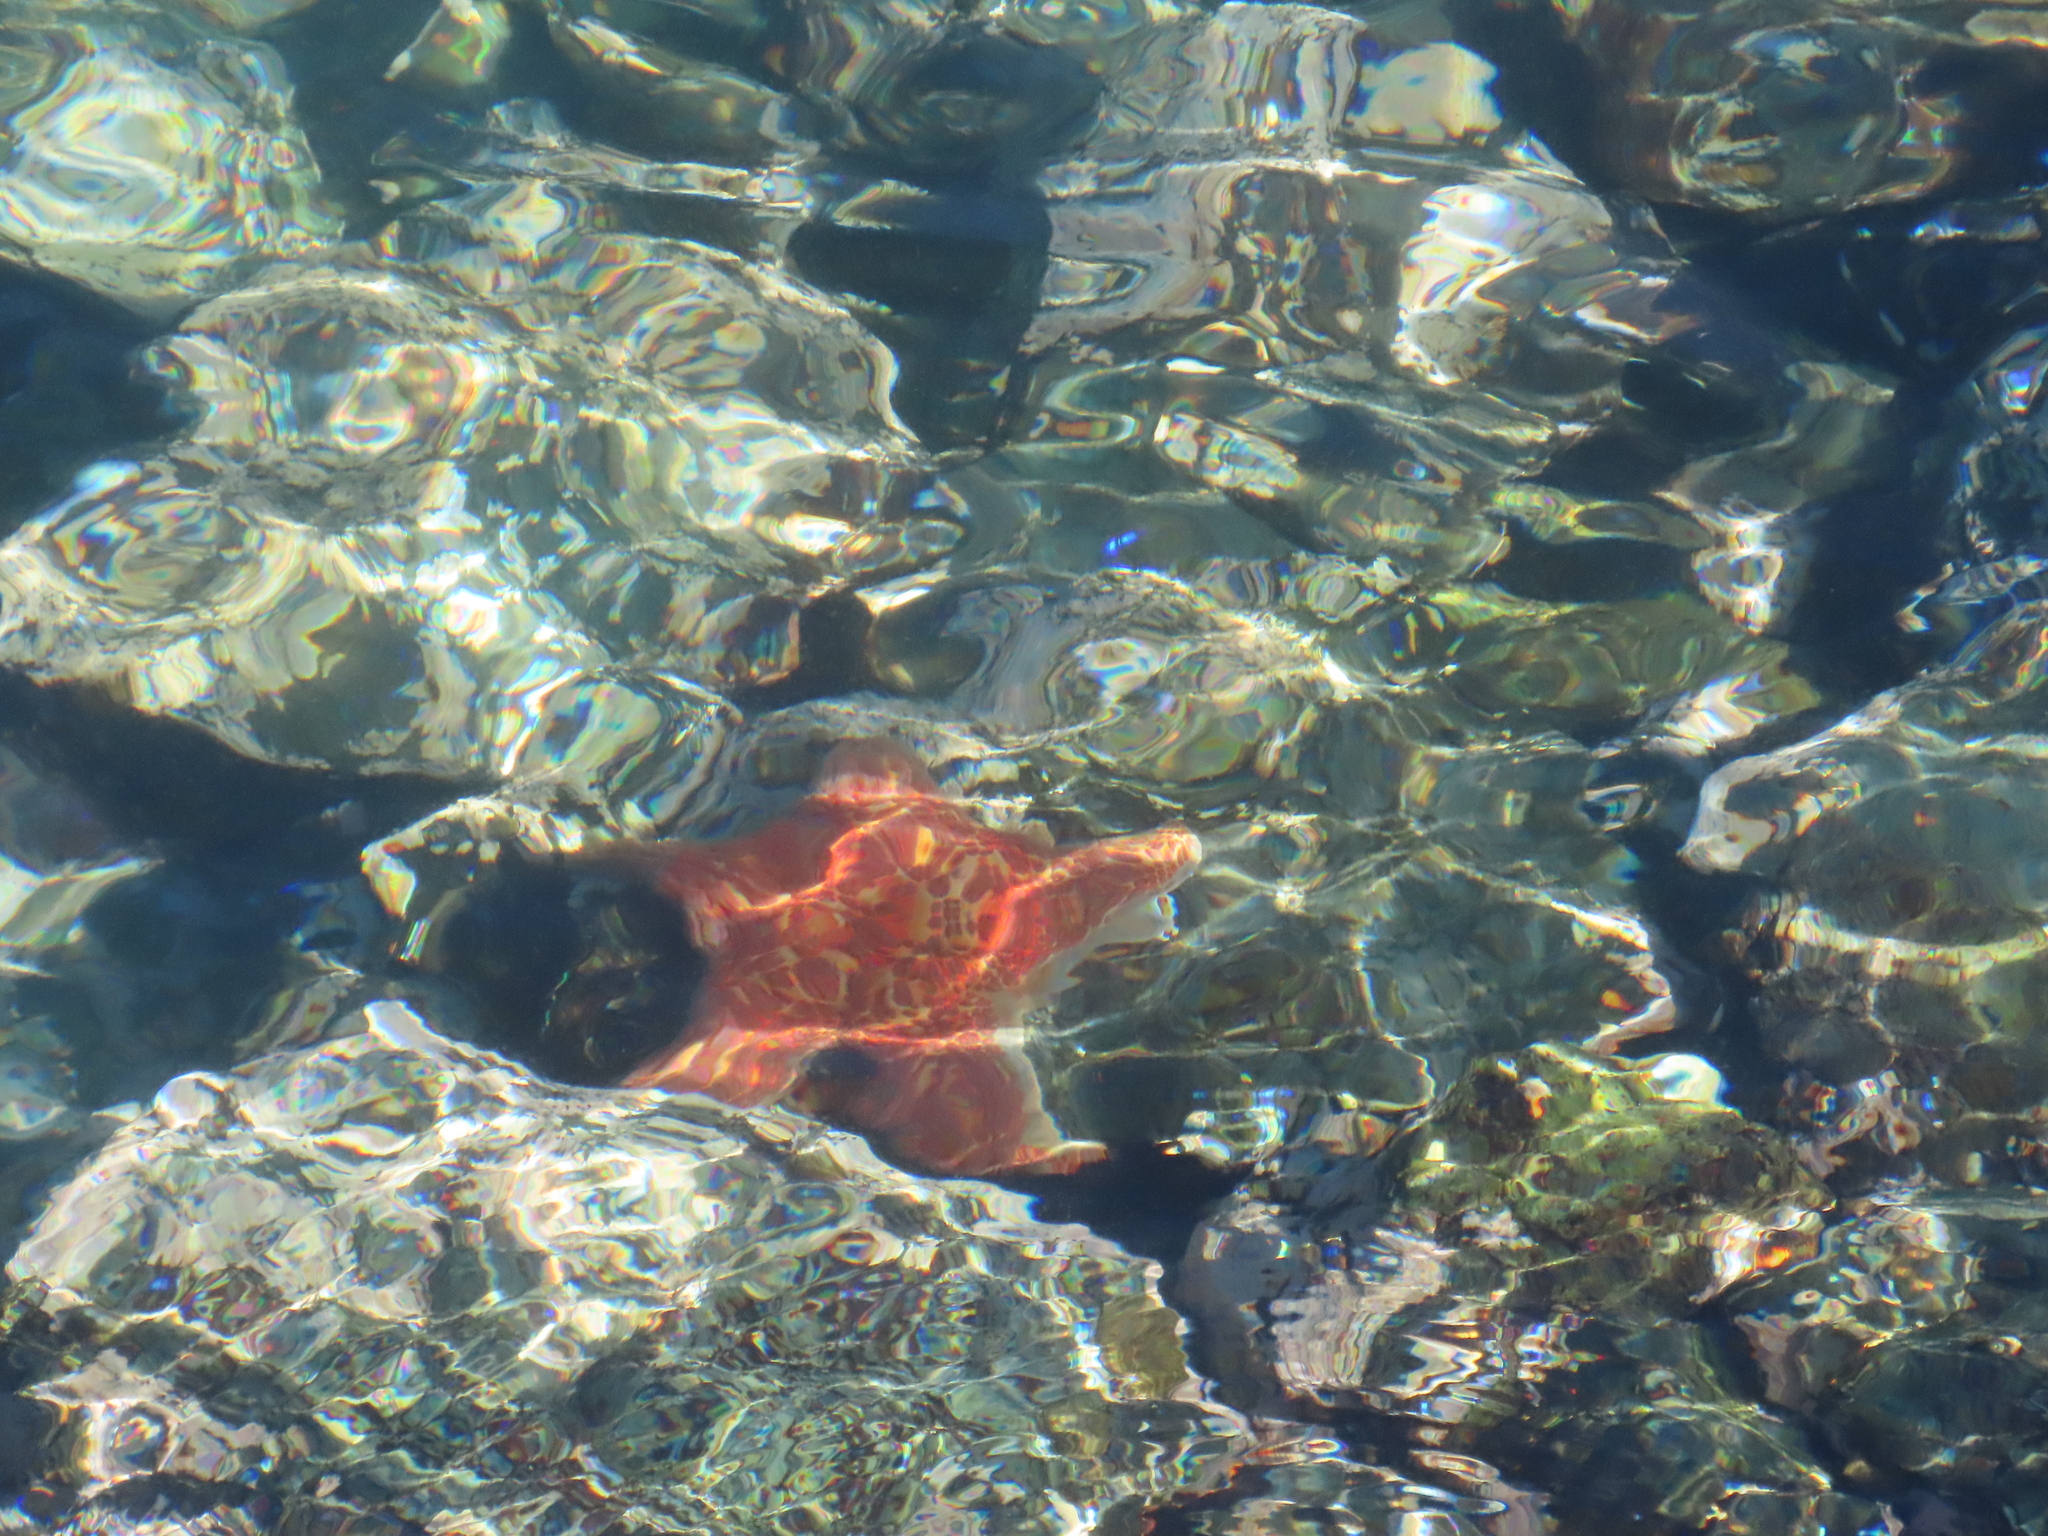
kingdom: Animalia
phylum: Echinodermata
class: Asteroidea
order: Valvatida
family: Asteropseidae
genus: Dermasterias
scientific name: Dermasterias imbricata
